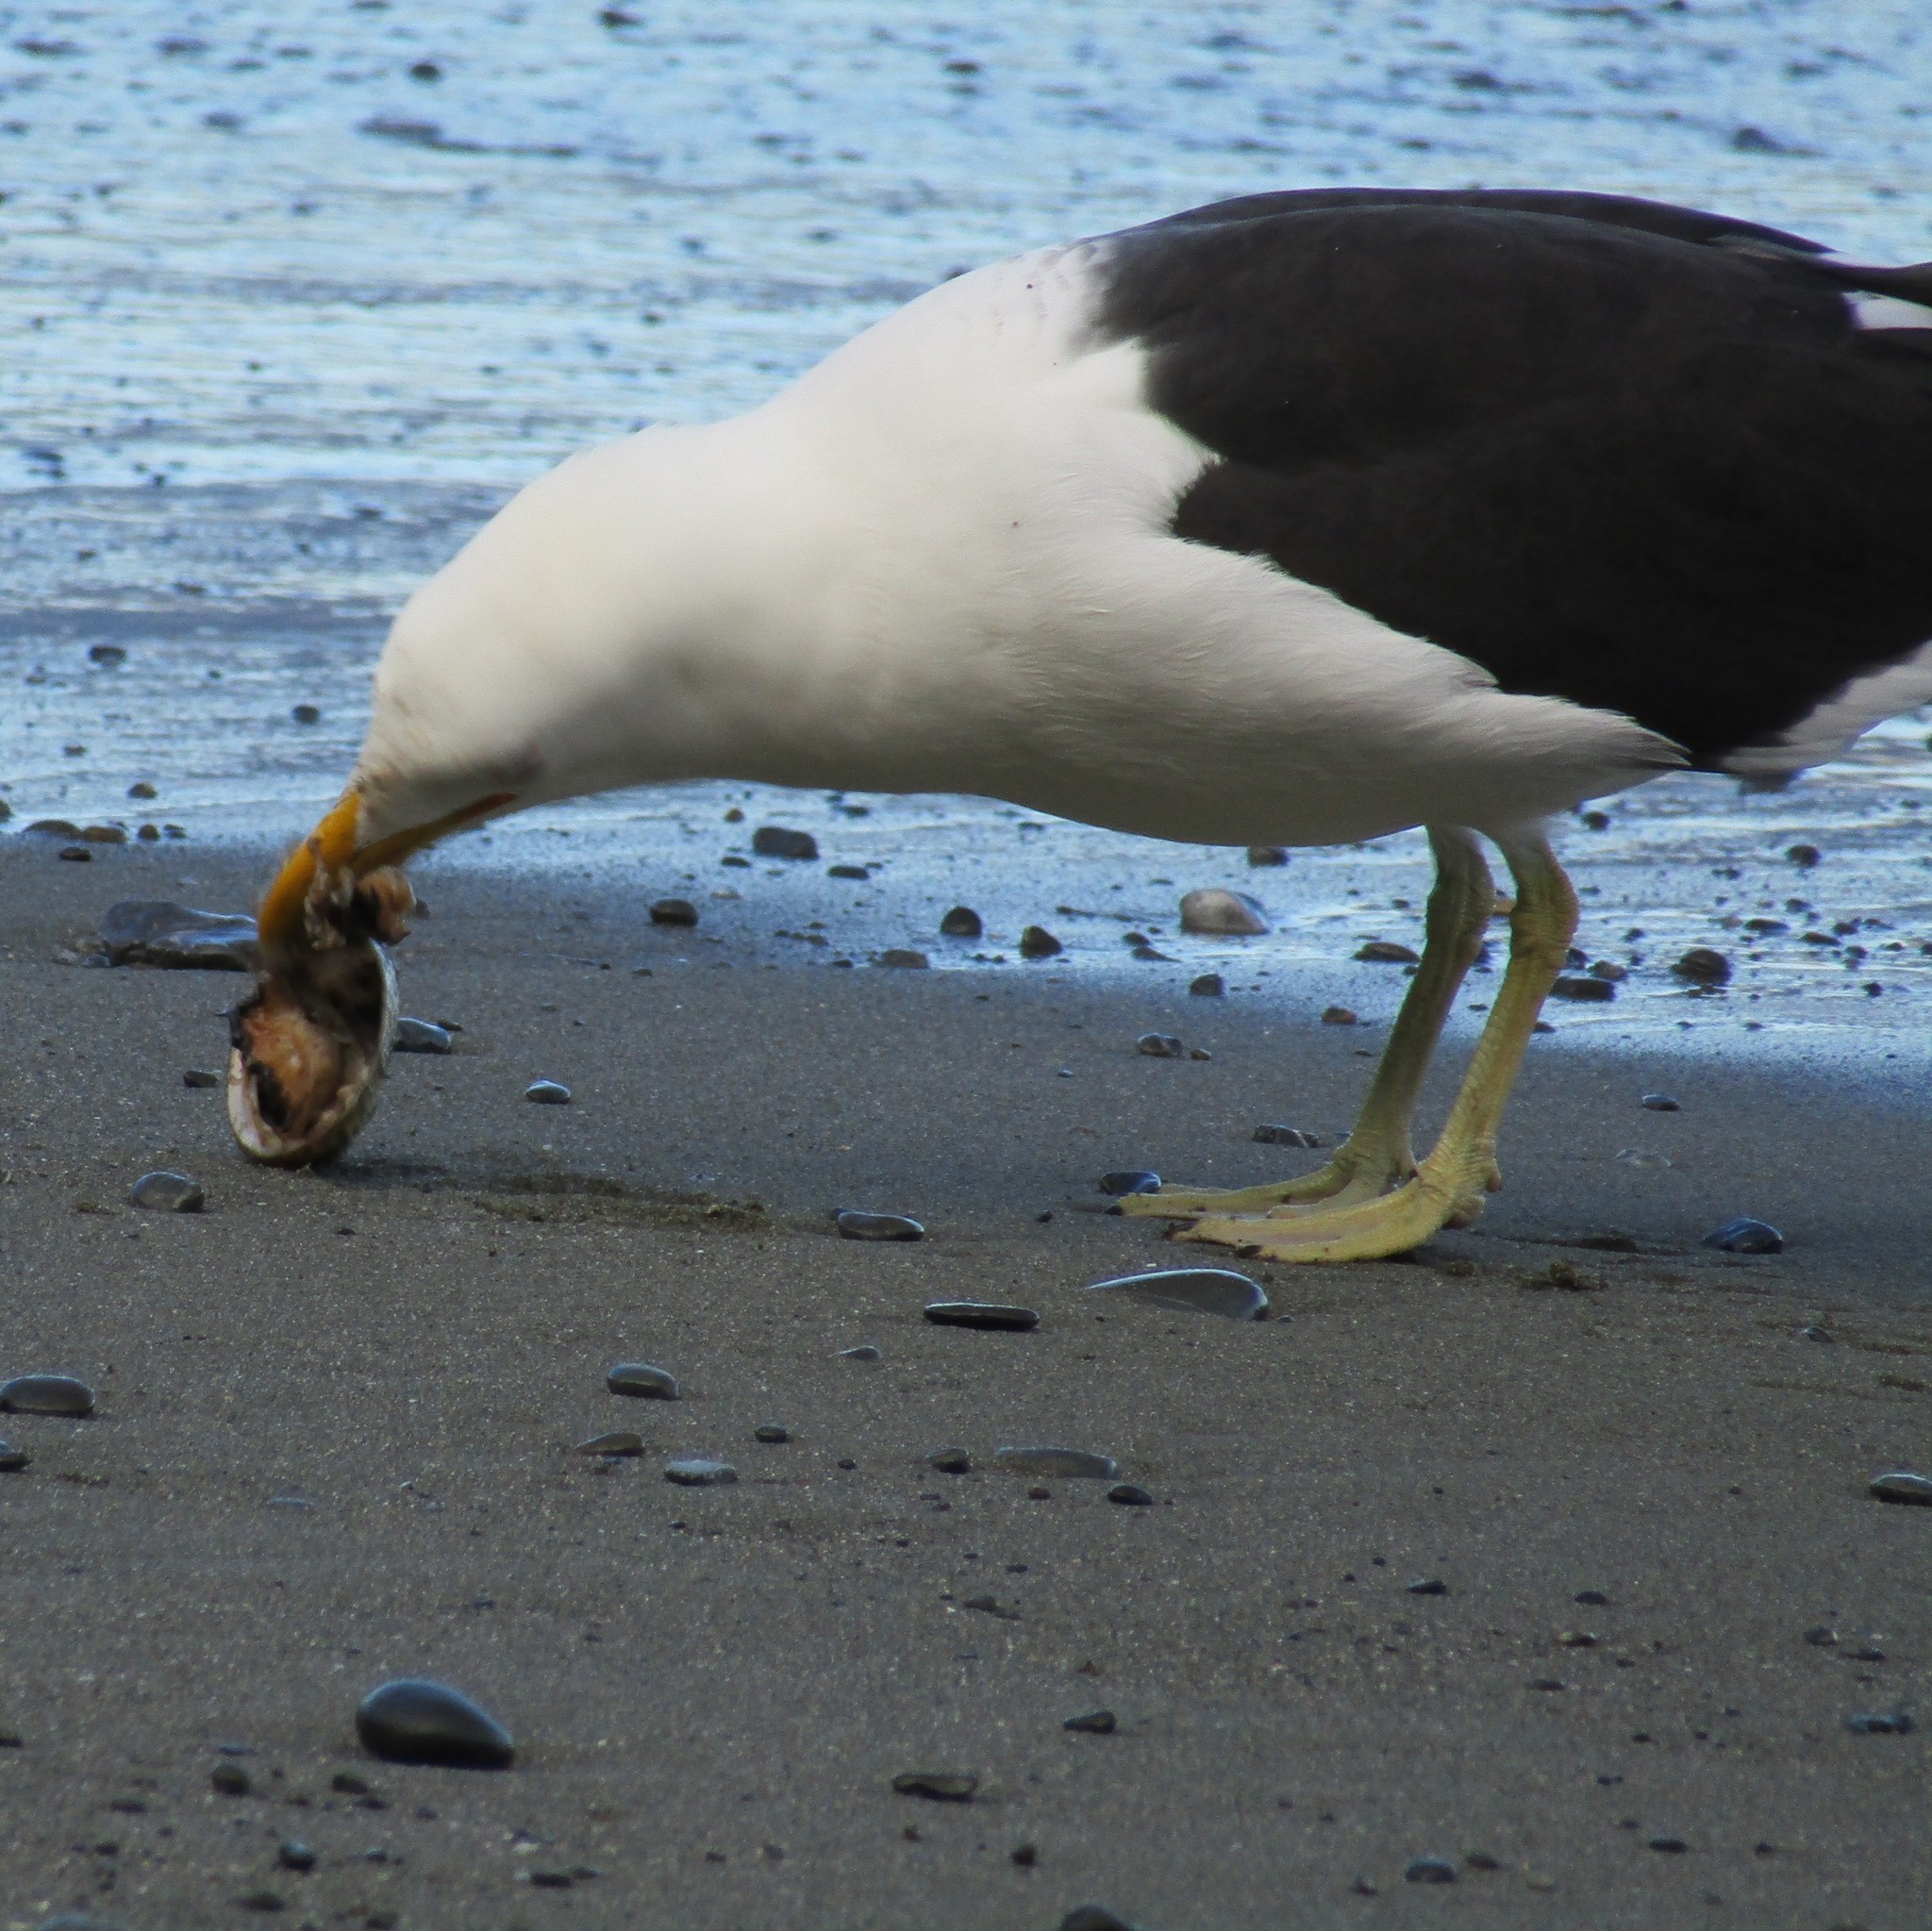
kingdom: Animalia
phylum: Mollusca
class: Gastropoda
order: Lepetellida
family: Haliotidae
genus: Haliotis
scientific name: Haliotis australis
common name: Silver abalone
